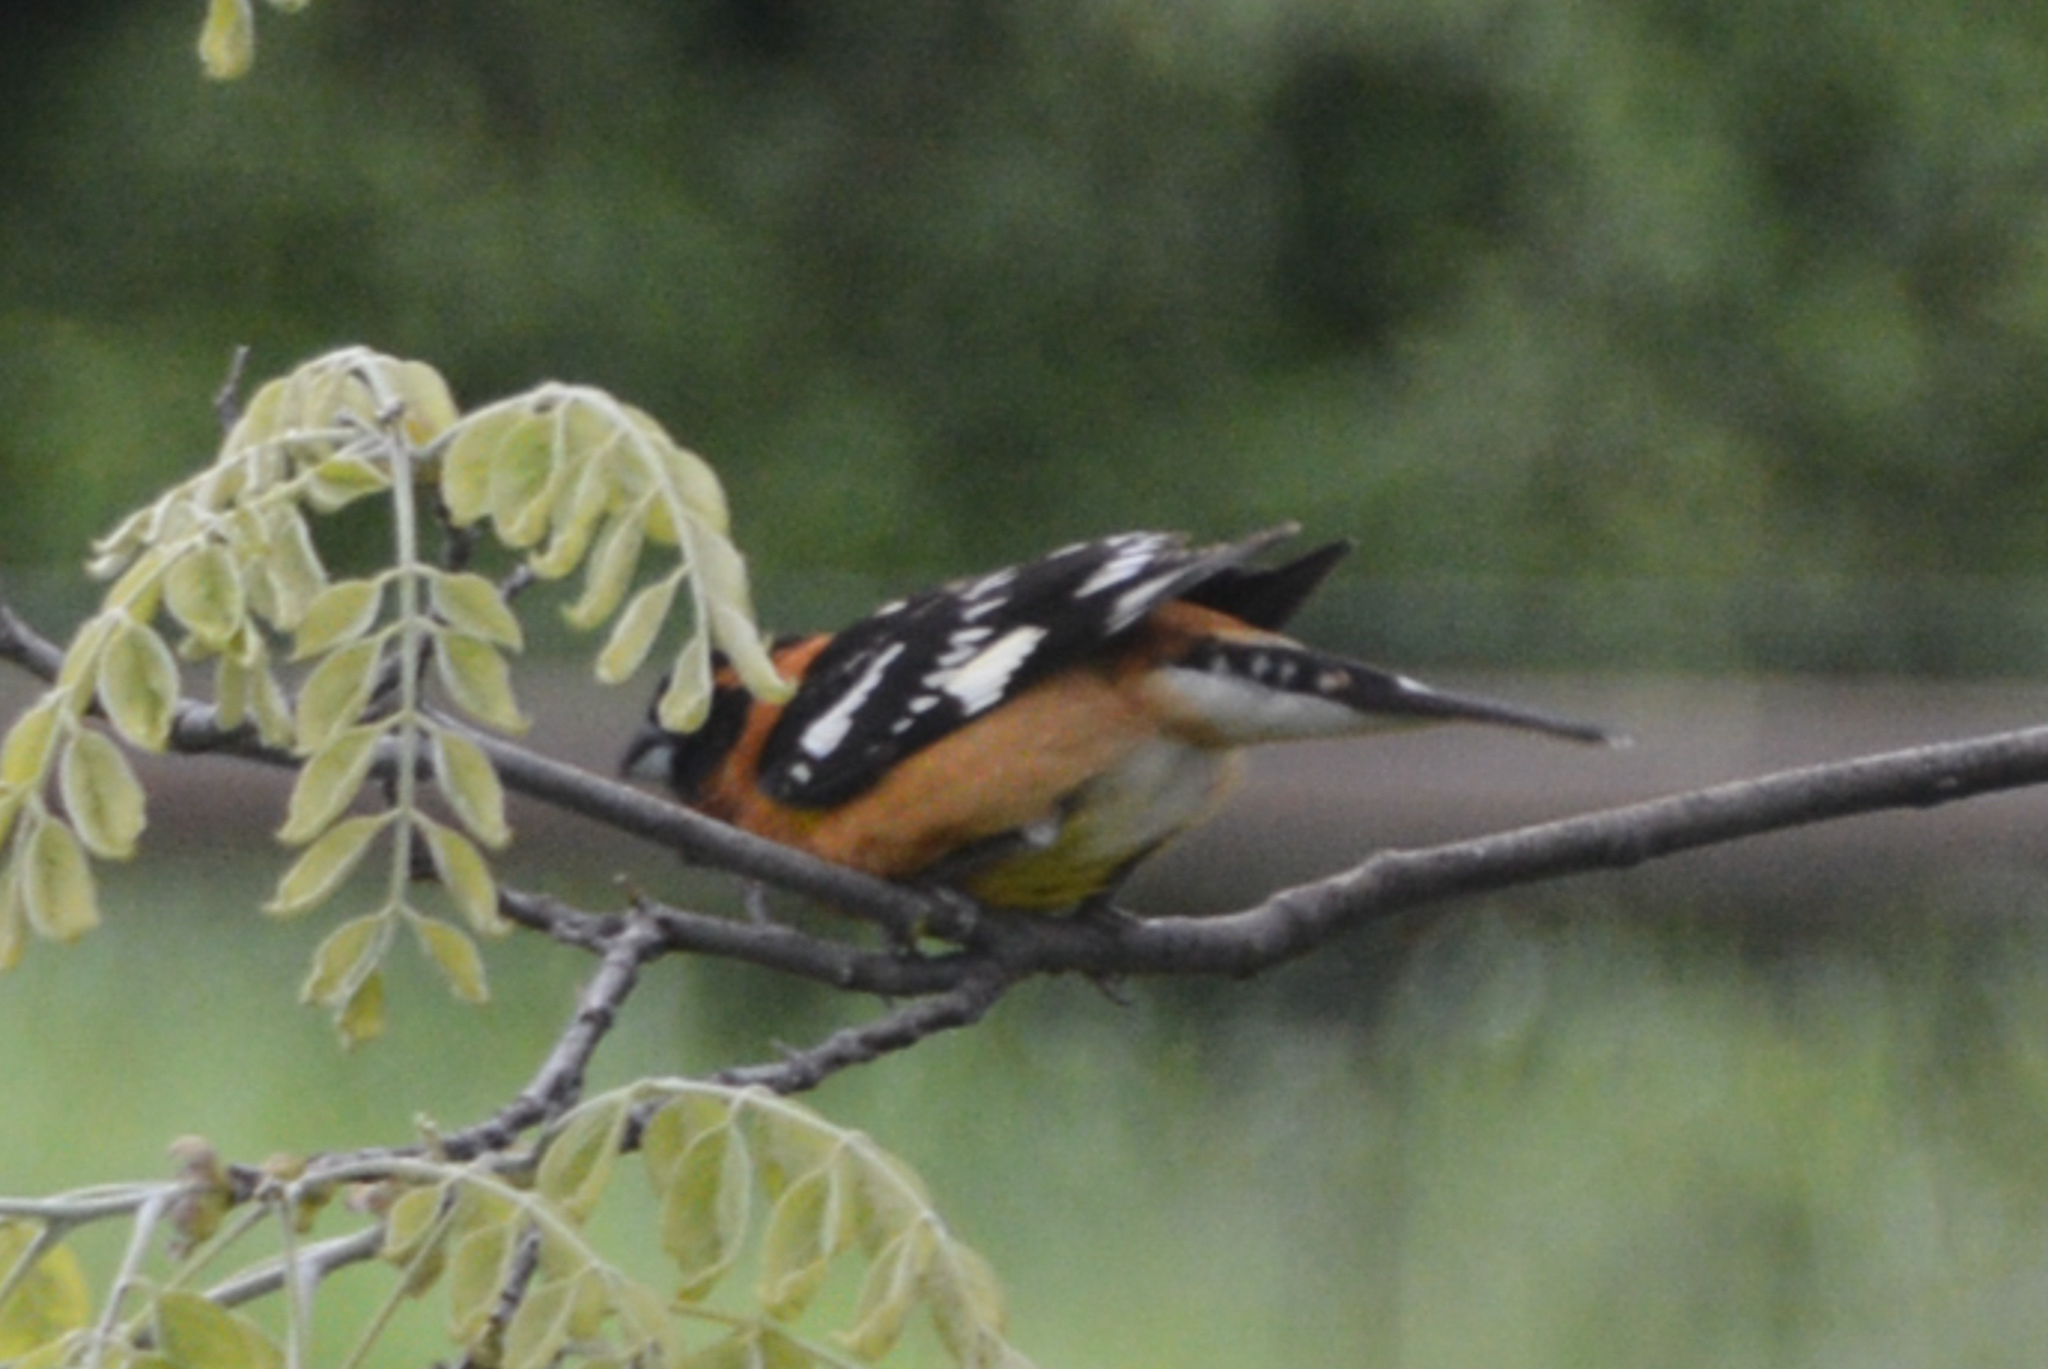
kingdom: Animalia
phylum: Chordata
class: Aves
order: Passeriformes
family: Cardinalidae
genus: Pheucticus
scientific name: Pheucticus melanocephalus
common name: Black-headed grosbeak
